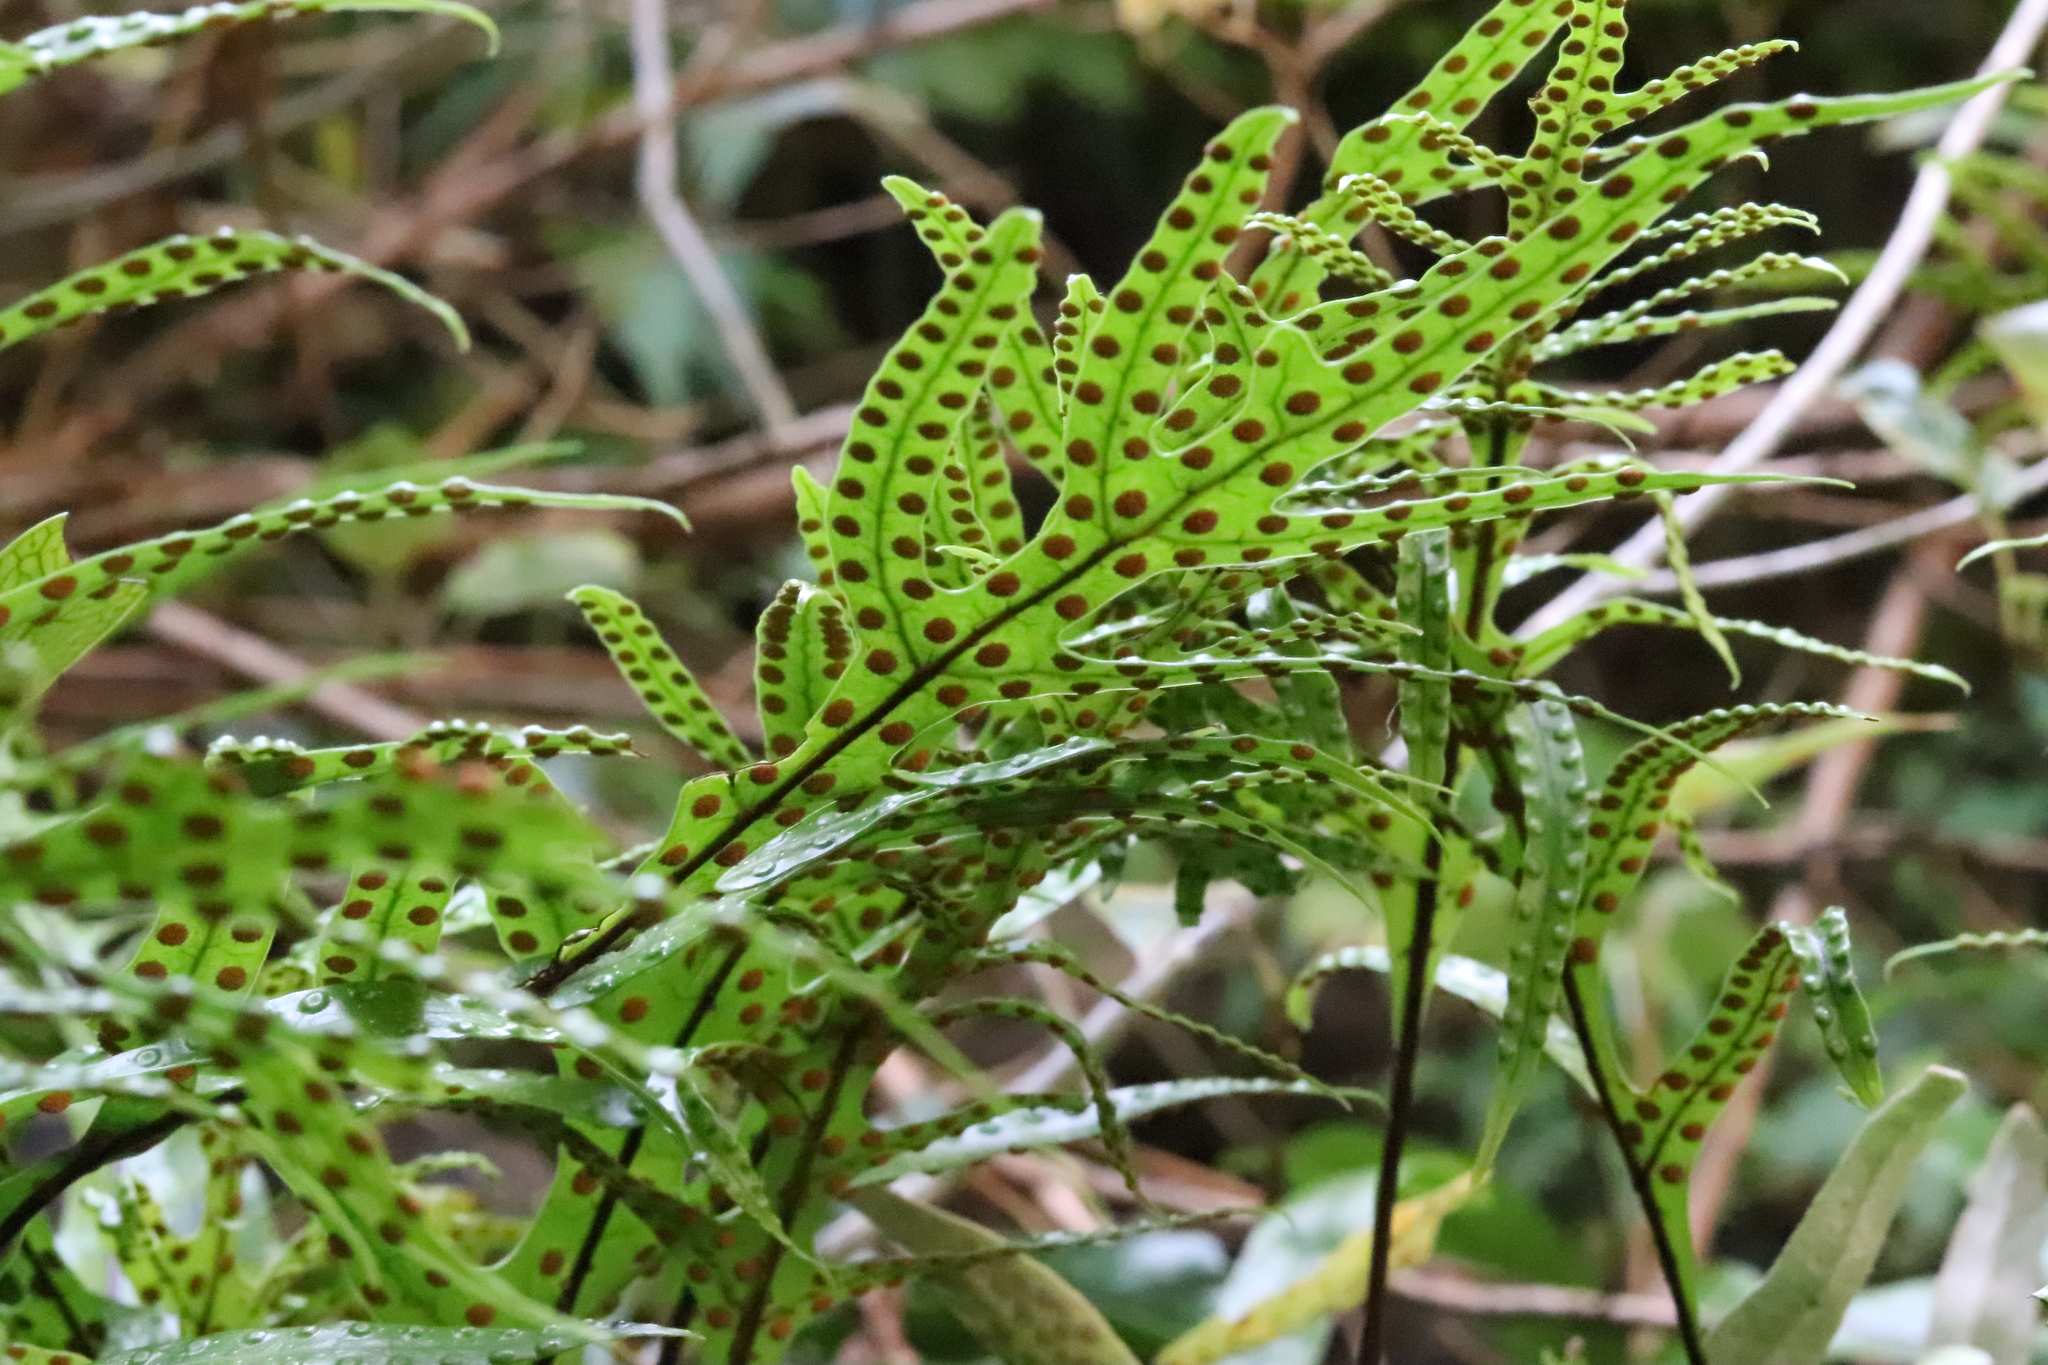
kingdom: Plantae
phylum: Tracheophyta
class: Polypodiopsida
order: Polypodiales
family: Polypodiaceae
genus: Lecanopteris
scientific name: Lecanopteris pustulata
